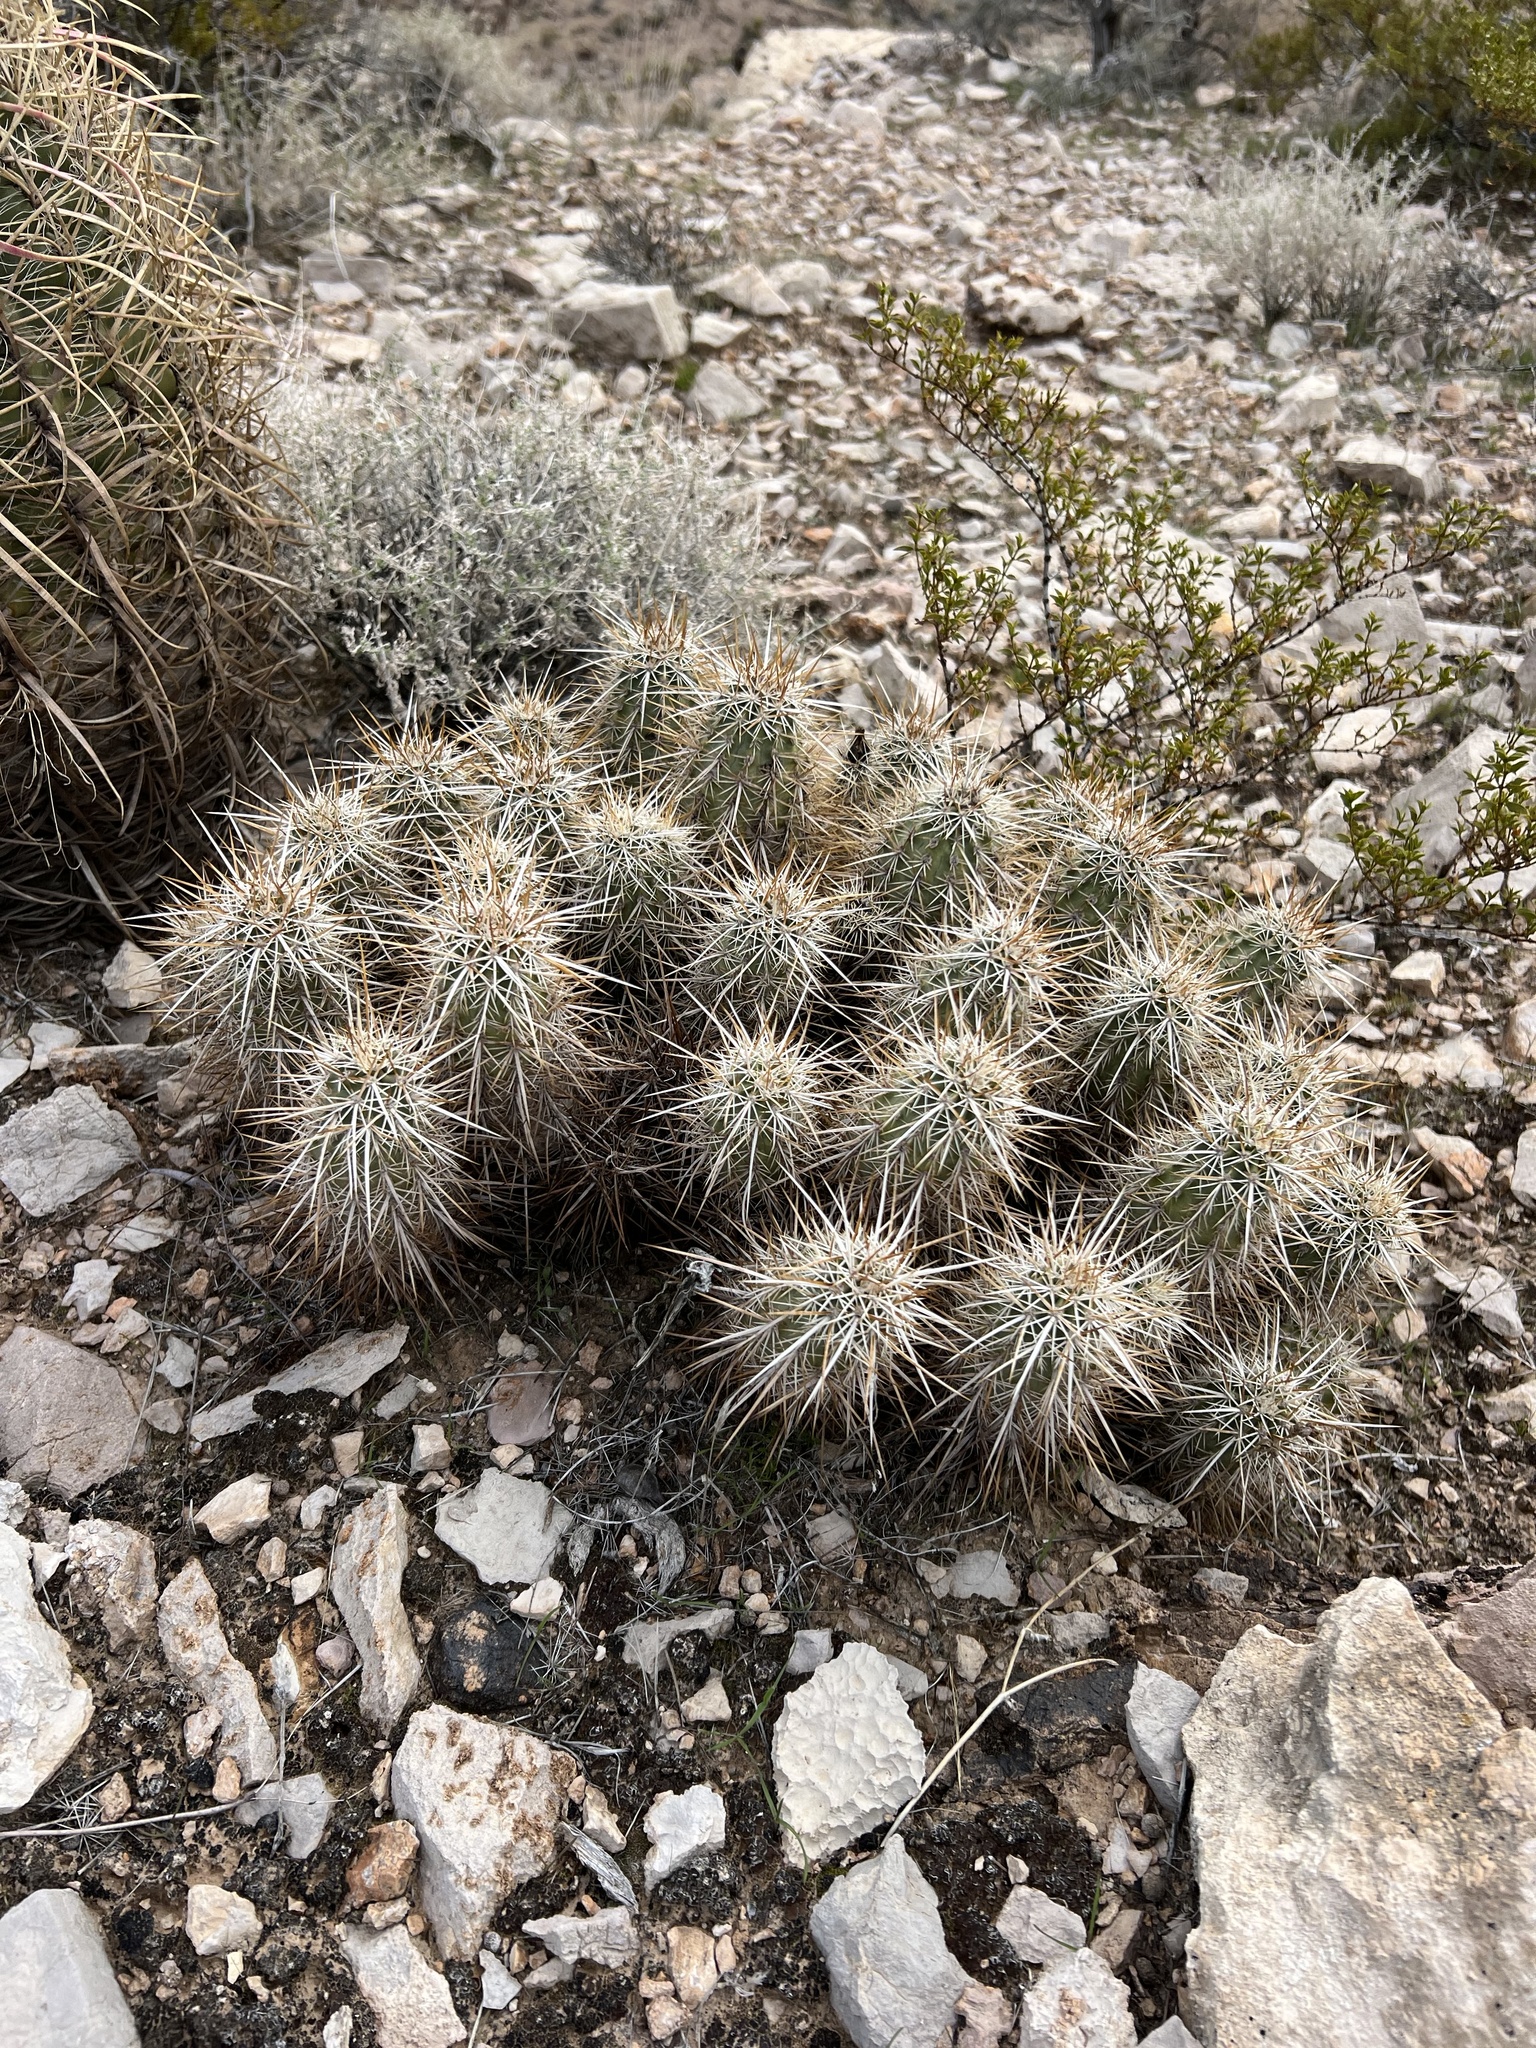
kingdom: Plantae
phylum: Tracheophyta
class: Magnoliopsida
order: Caryophyllales
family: Cactaceae
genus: Echinocereus
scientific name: Echinocereus engelmannii
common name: Engelmann's hedgehog cactus
